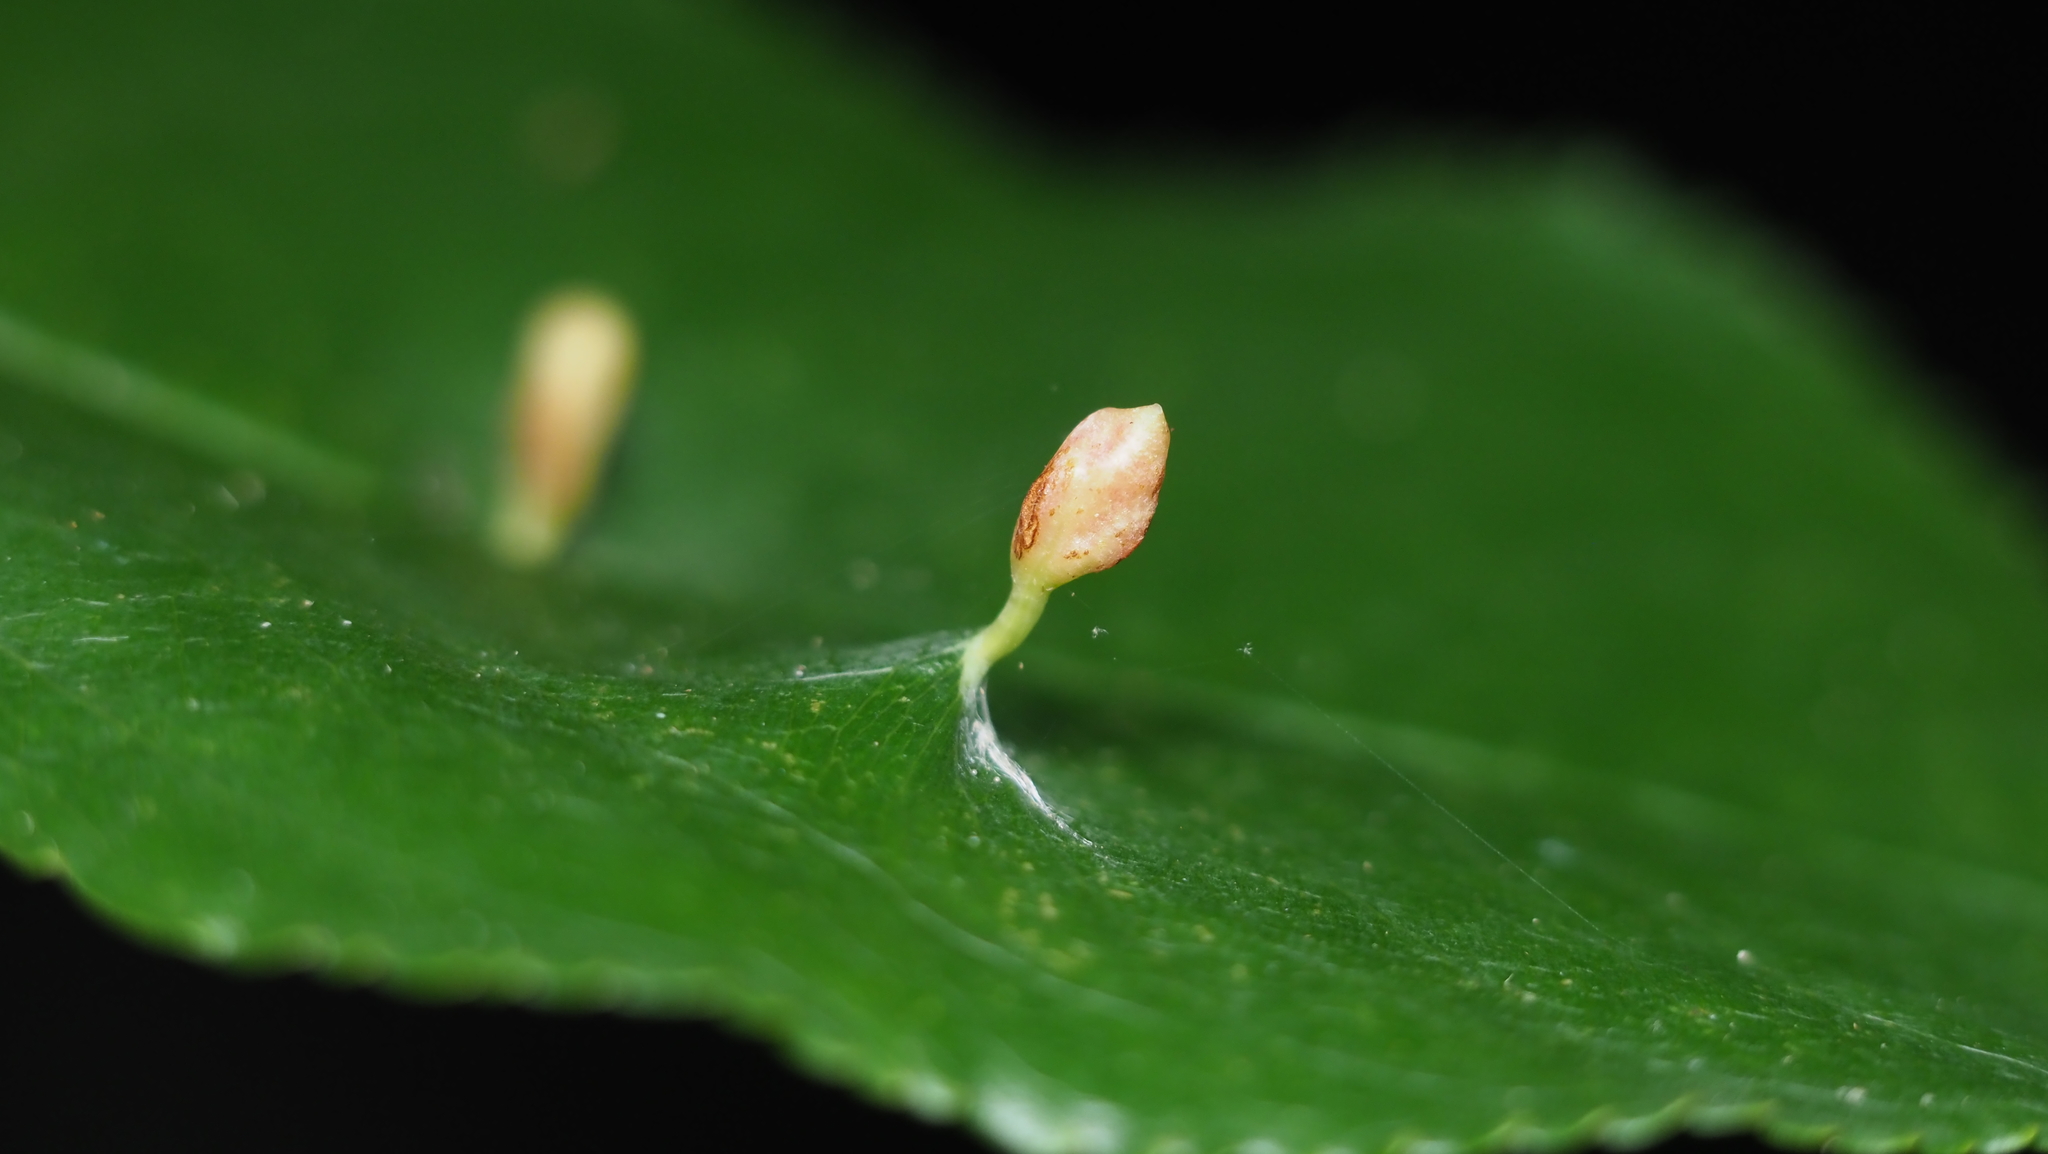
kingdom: Animalia
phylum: Arthropoda
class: Arachnida
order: Trombidiformes
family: Eriophyidae
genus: Eriophyes
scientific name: Eriophyes
